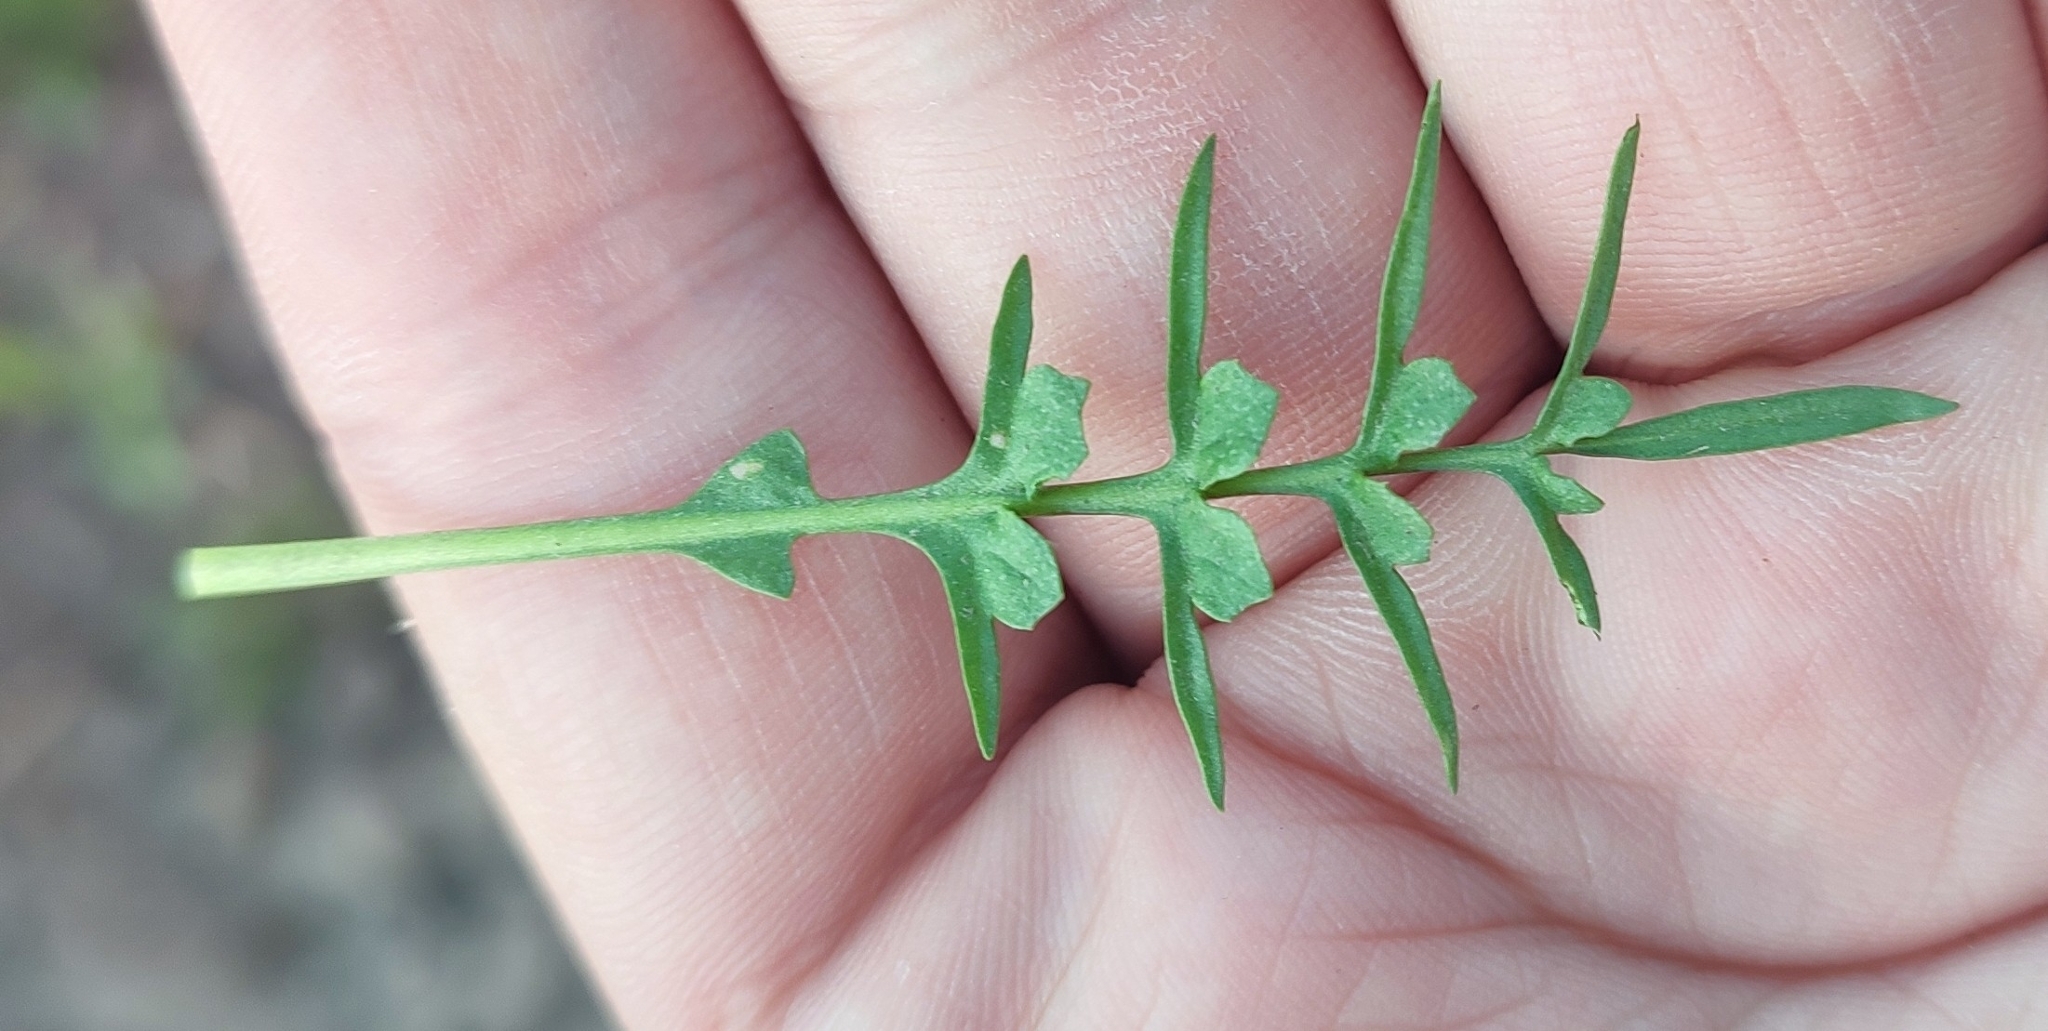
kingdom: Plantae
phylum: Tracheophyta
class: Magnoliopsida
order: Brassicales
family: Brassicaceae
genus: Lepidium
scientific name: Lepidium ruderale
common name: Narrow-leaved pepperwort
